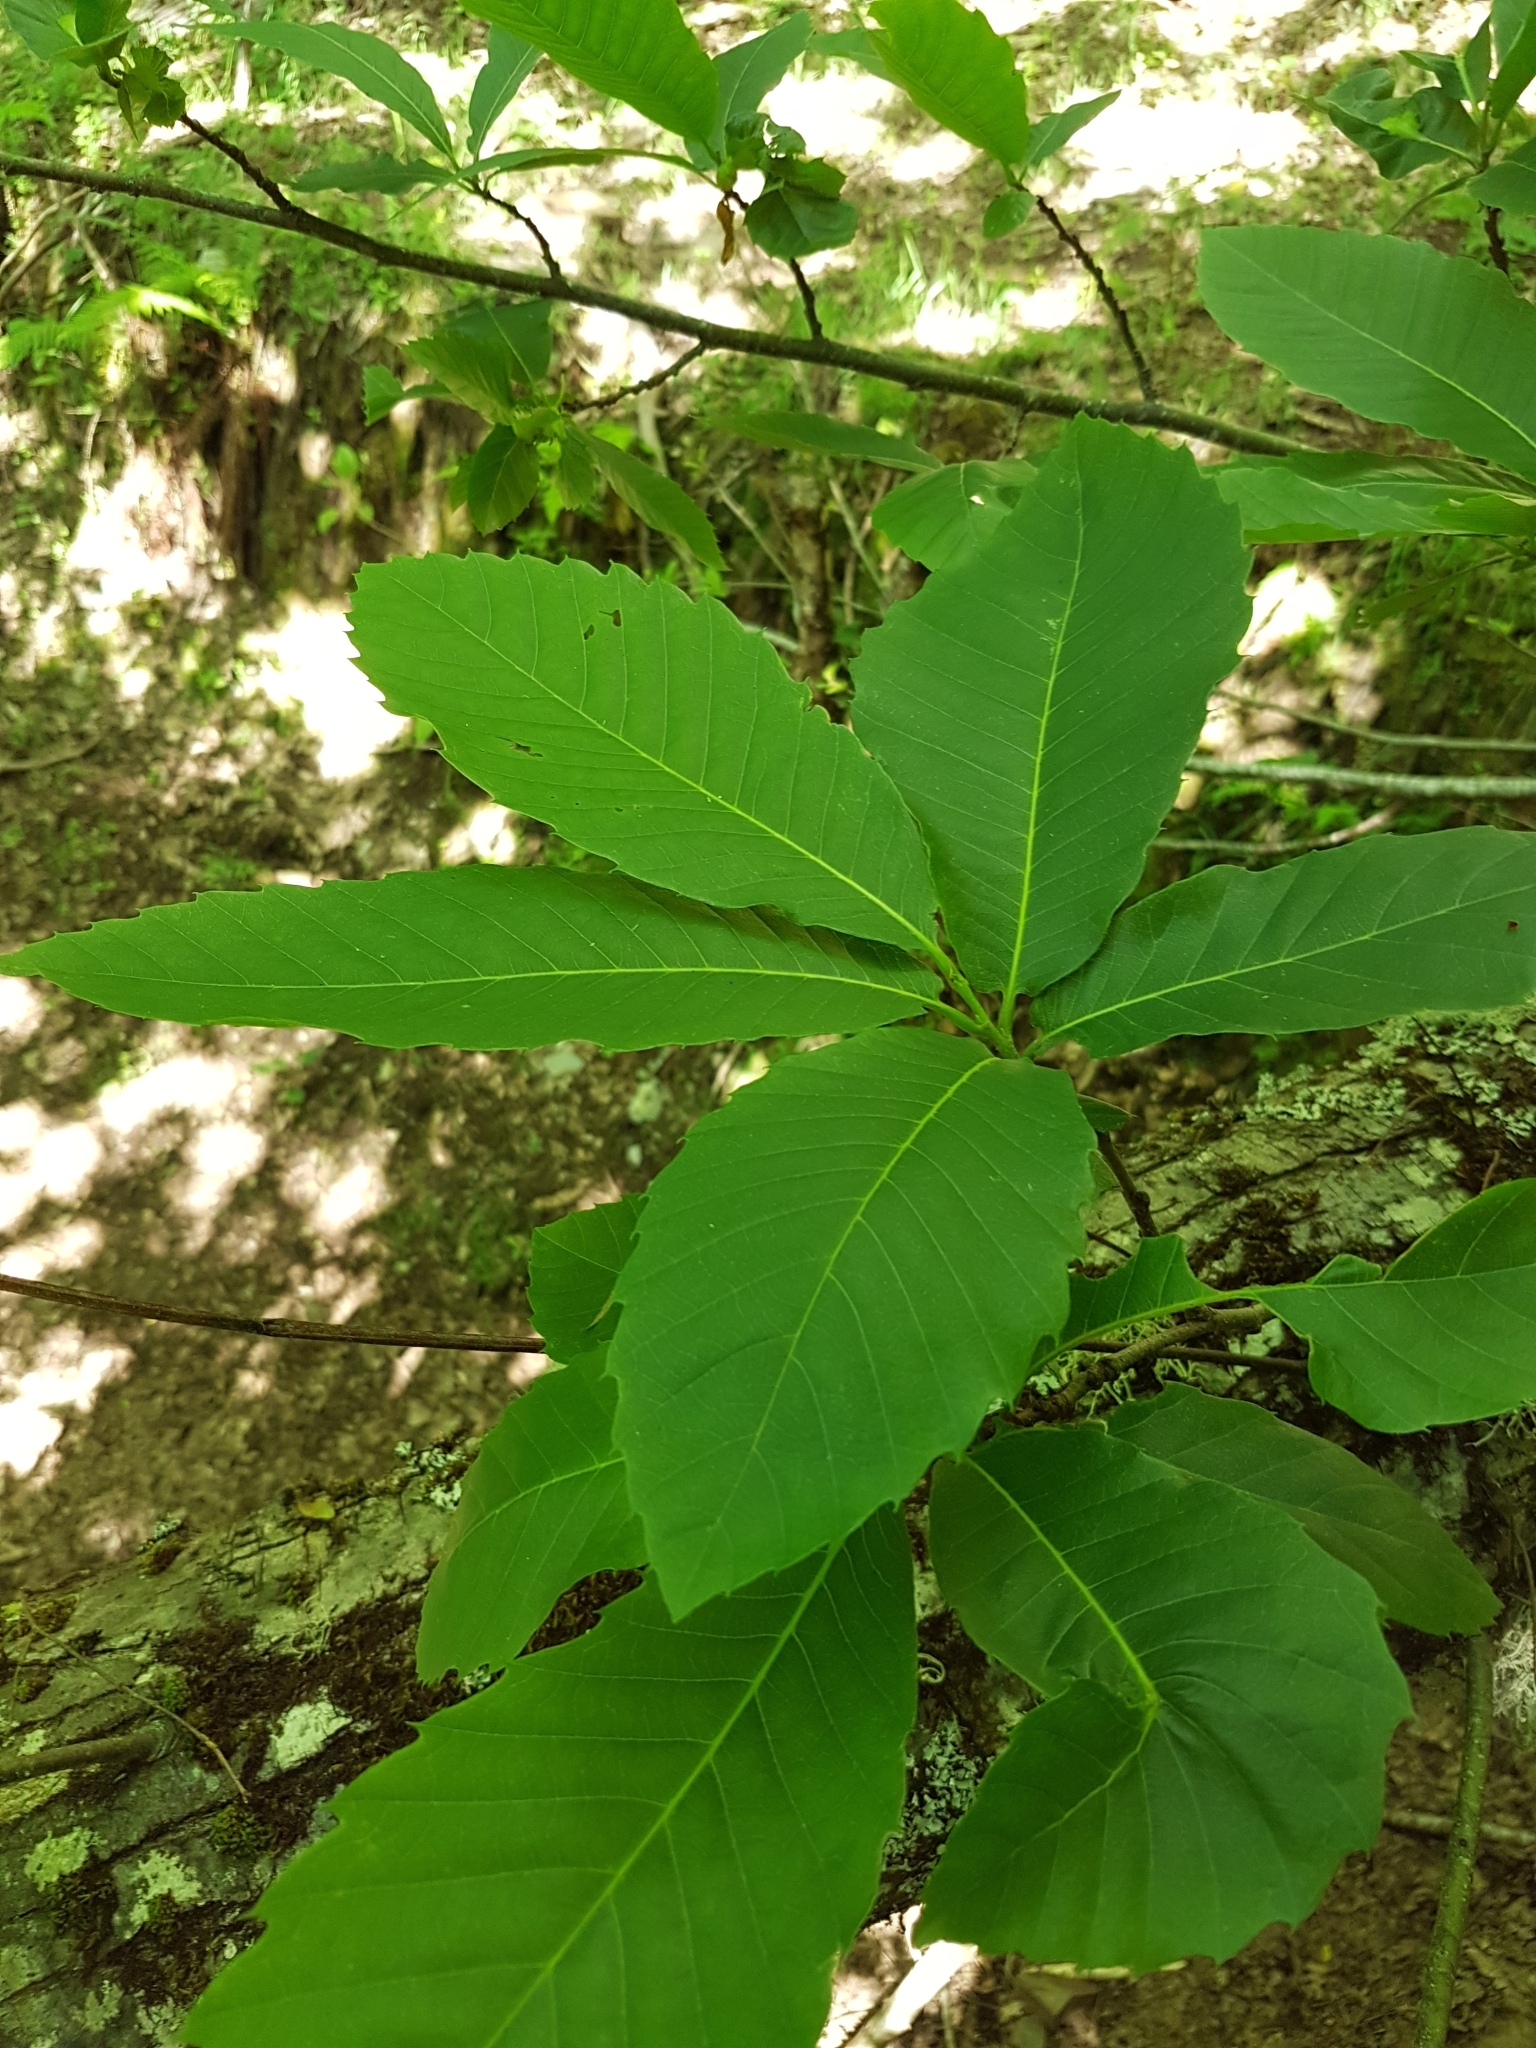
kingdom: Plantae
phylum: Tracheophyta
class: Magnoliopsida
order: Fagales
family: Fagaceae
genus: Castanea
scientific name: Castanea sativa
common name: Sweet chestnut
